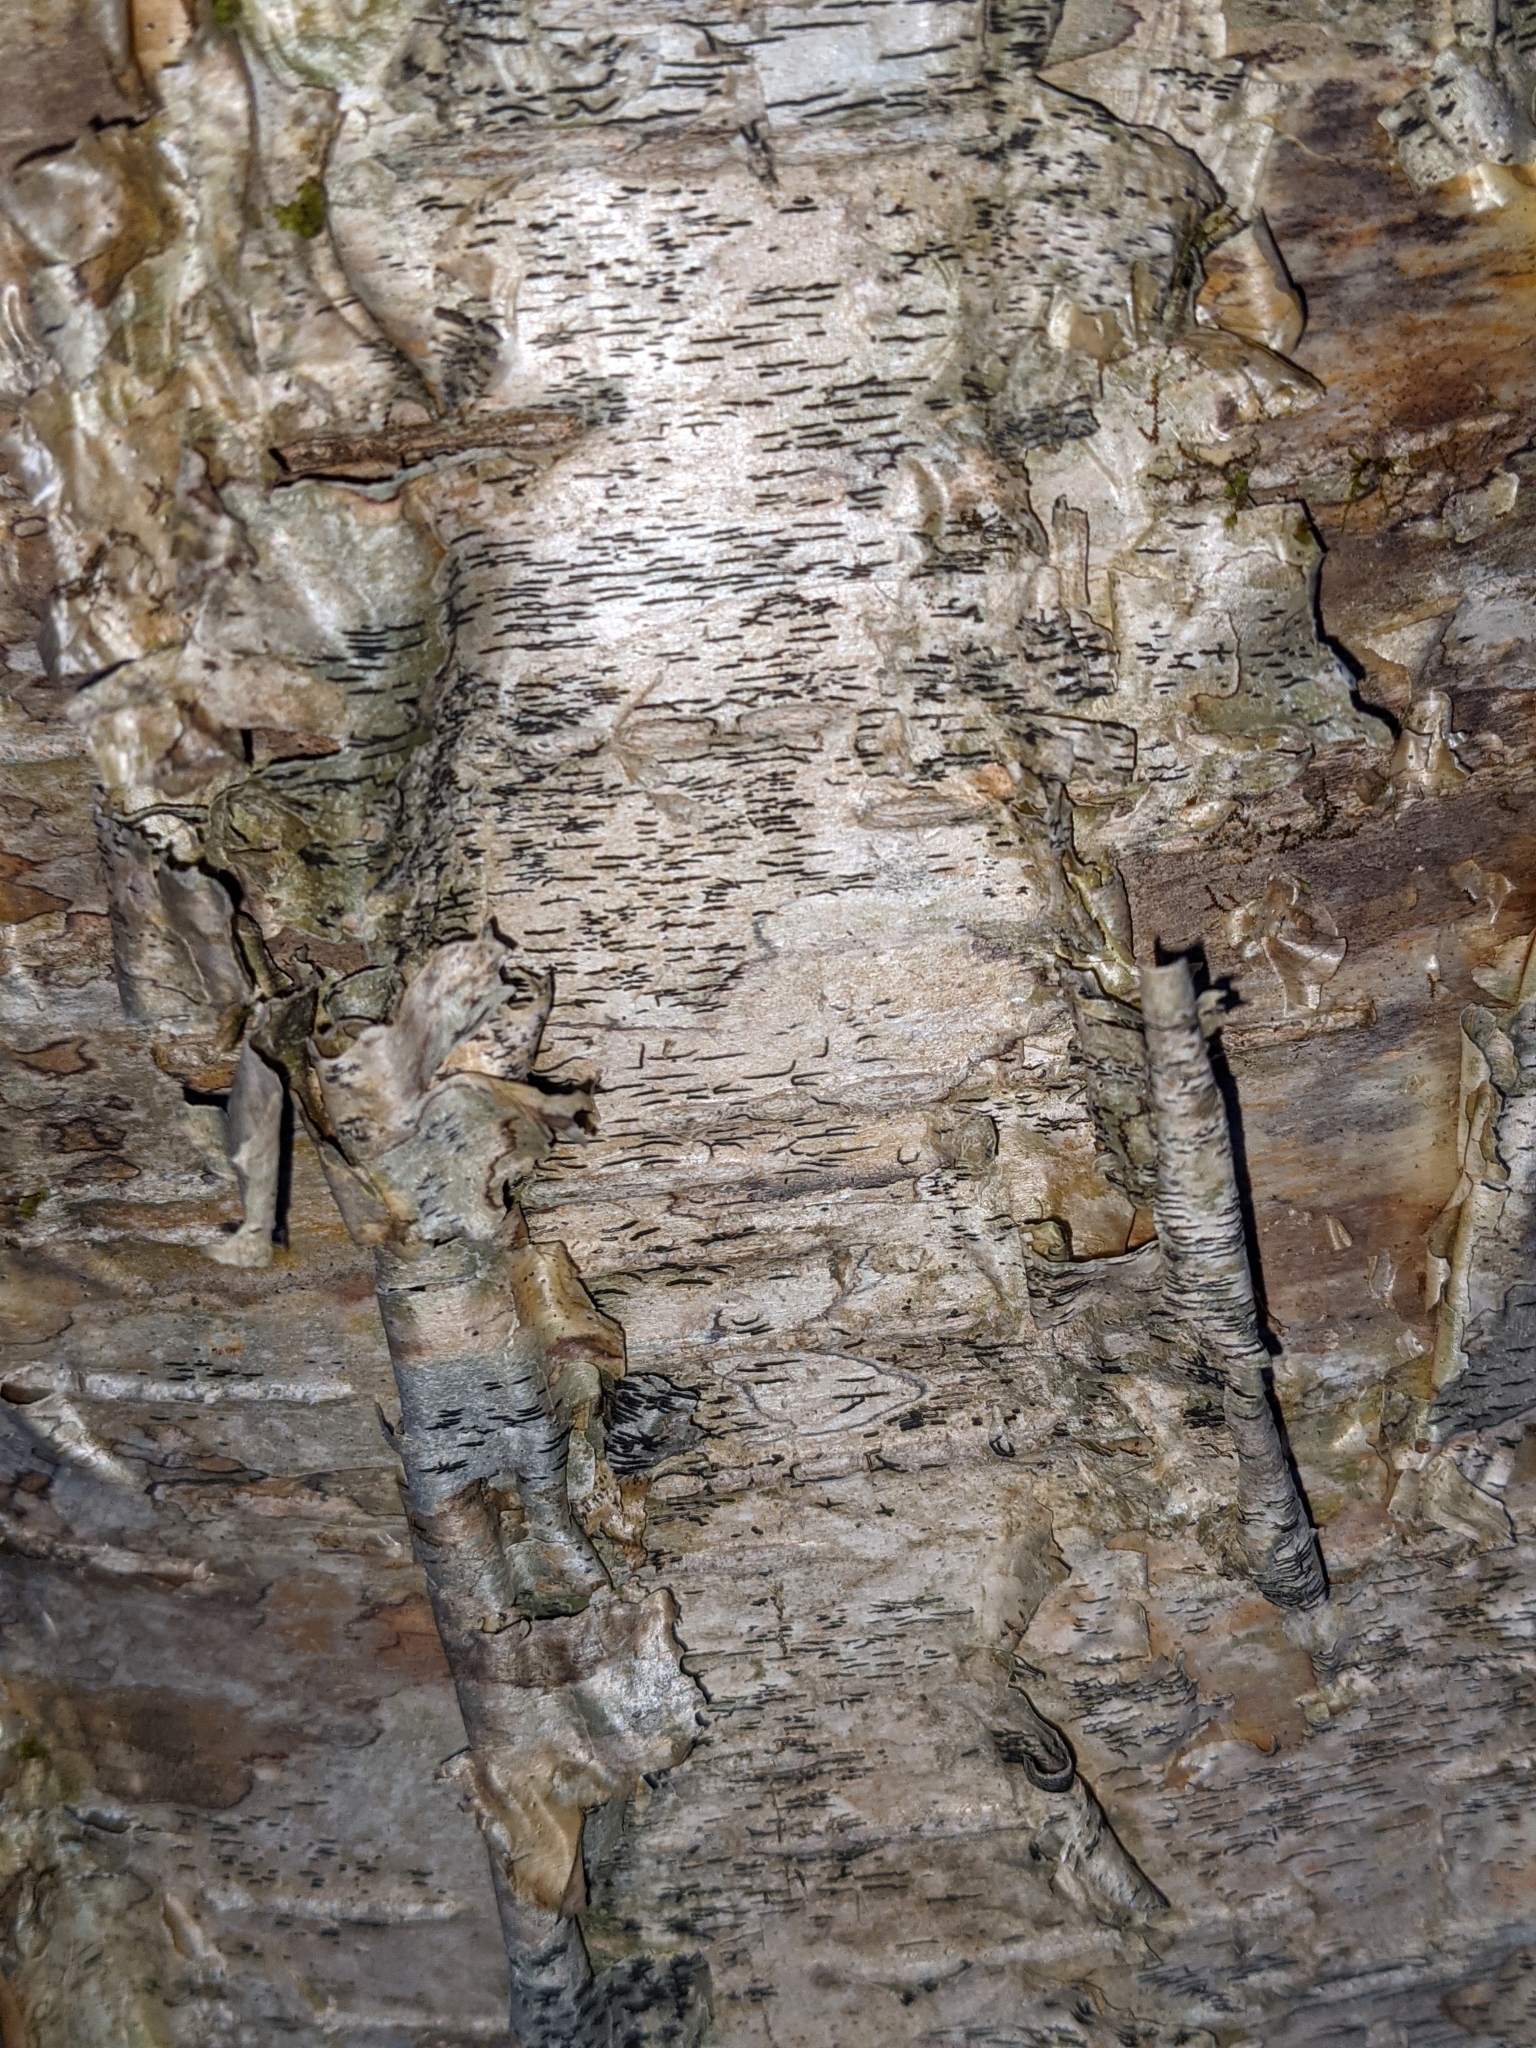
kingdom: Plantae
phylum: Tracheophyta
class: Magnoliopsida
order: Fagales
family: Betulaceae
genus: Betula
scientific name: Betula alleghaniensis
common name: Yellow birch
